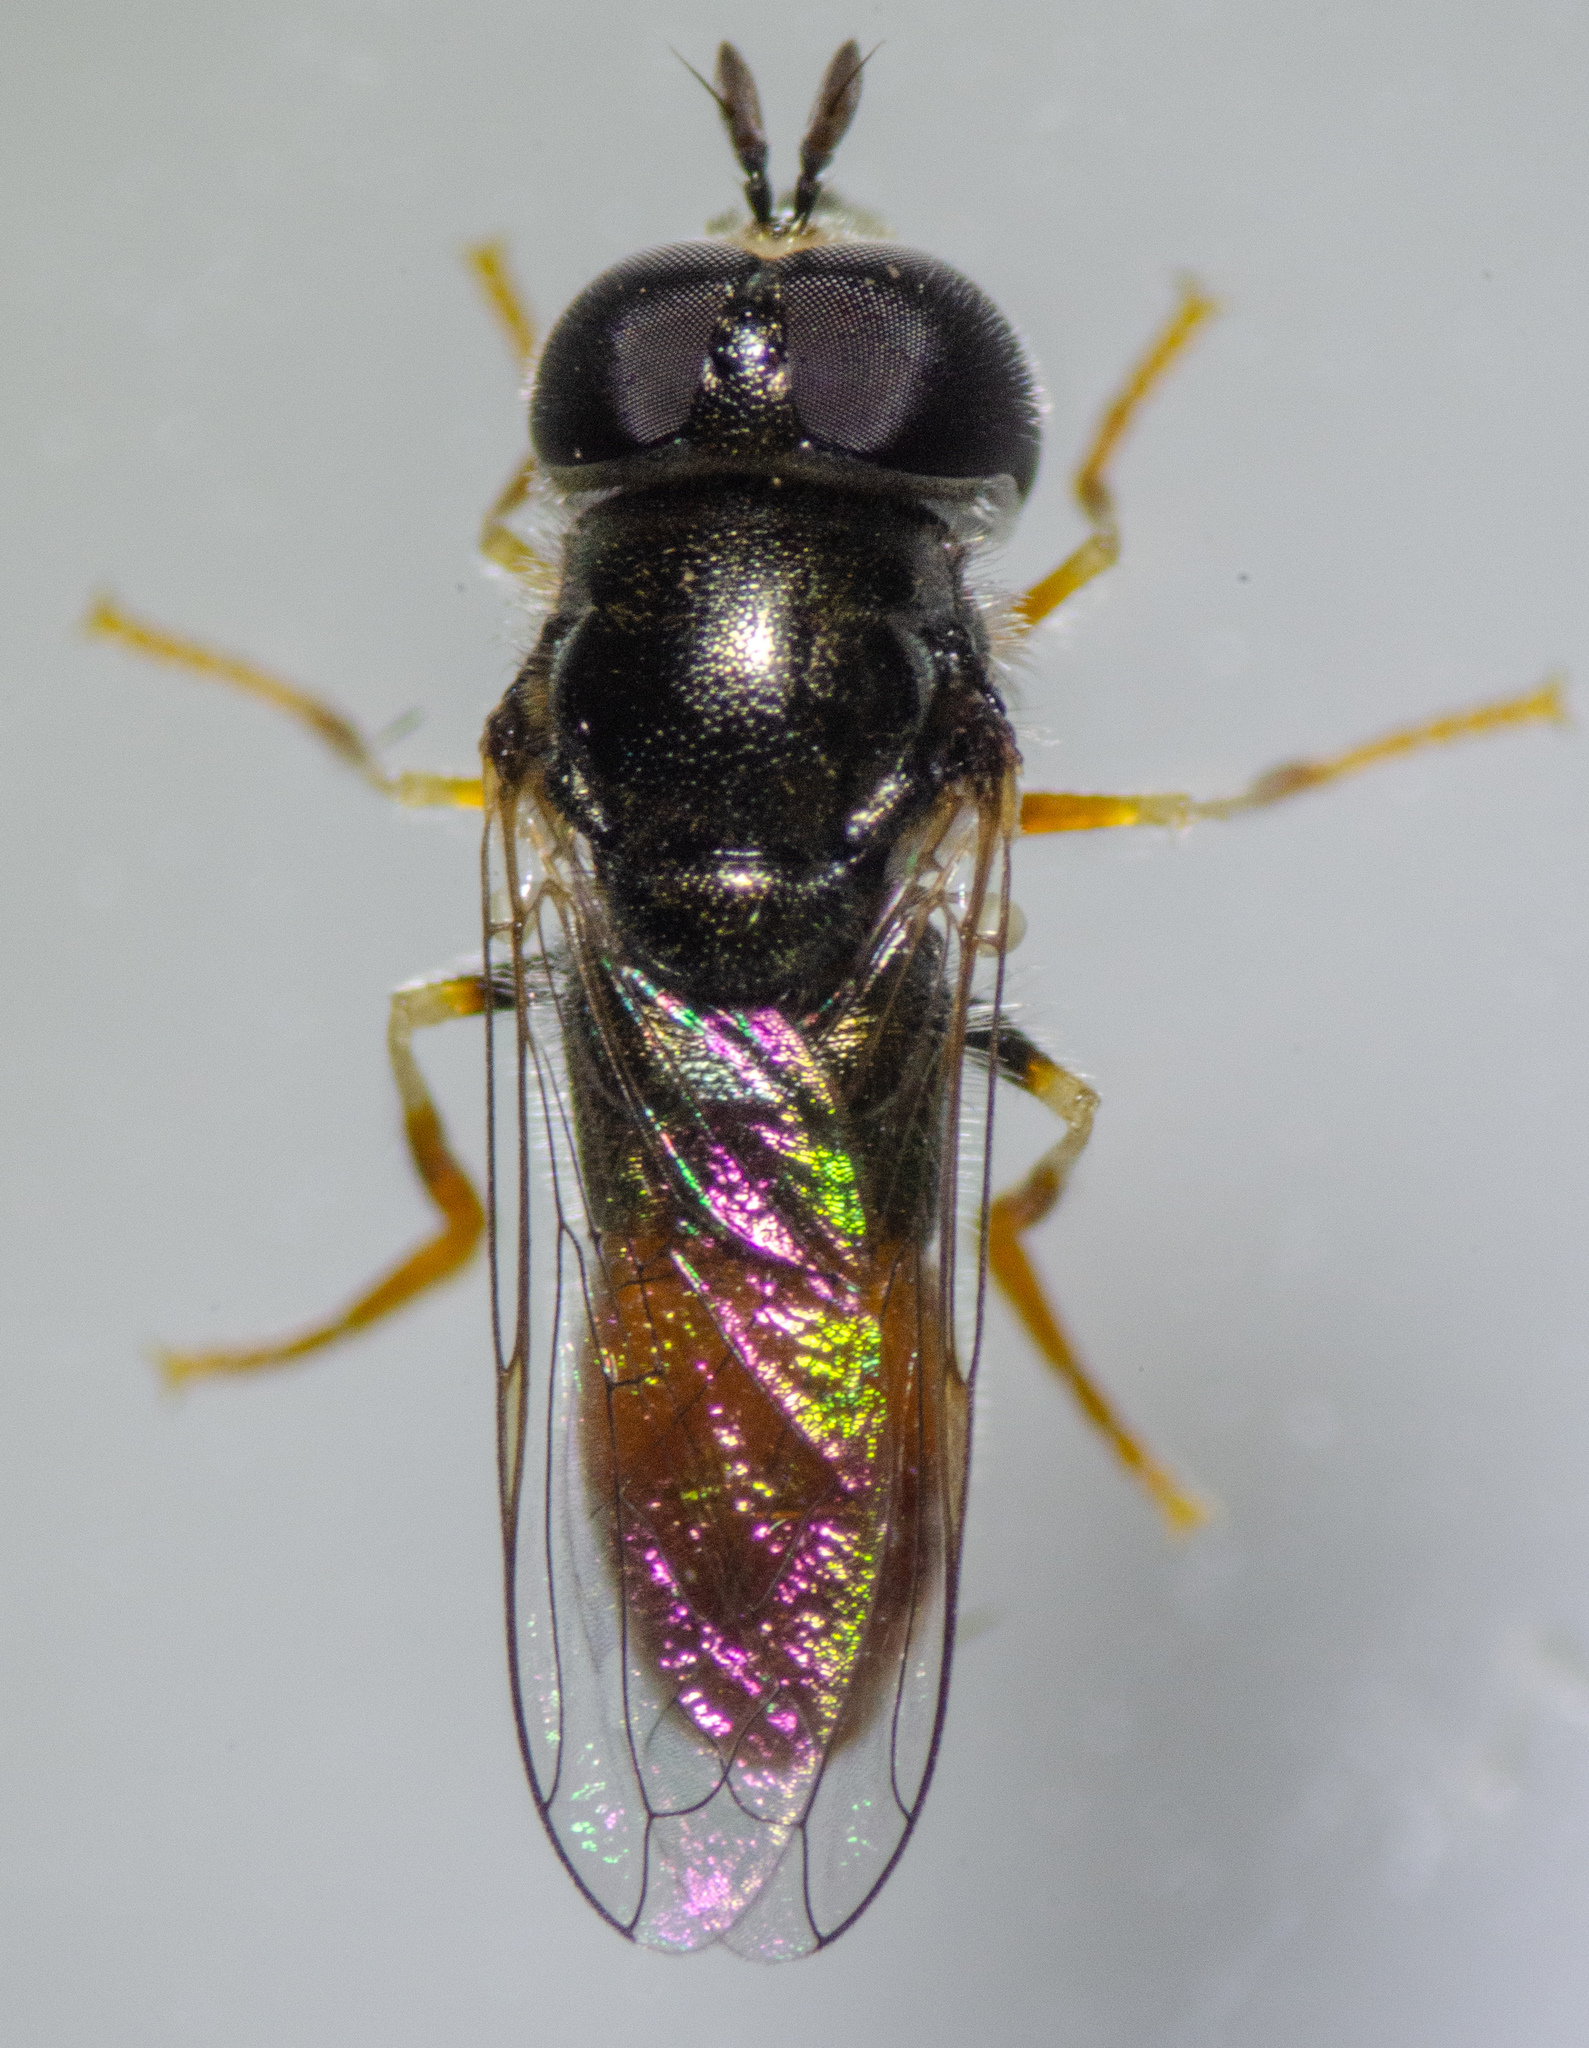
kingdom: Animalia
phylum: Arthropoda
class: Insecta
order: Diptera
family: Syrphidae
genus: Paragus
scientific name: Paragus haemorrhous
